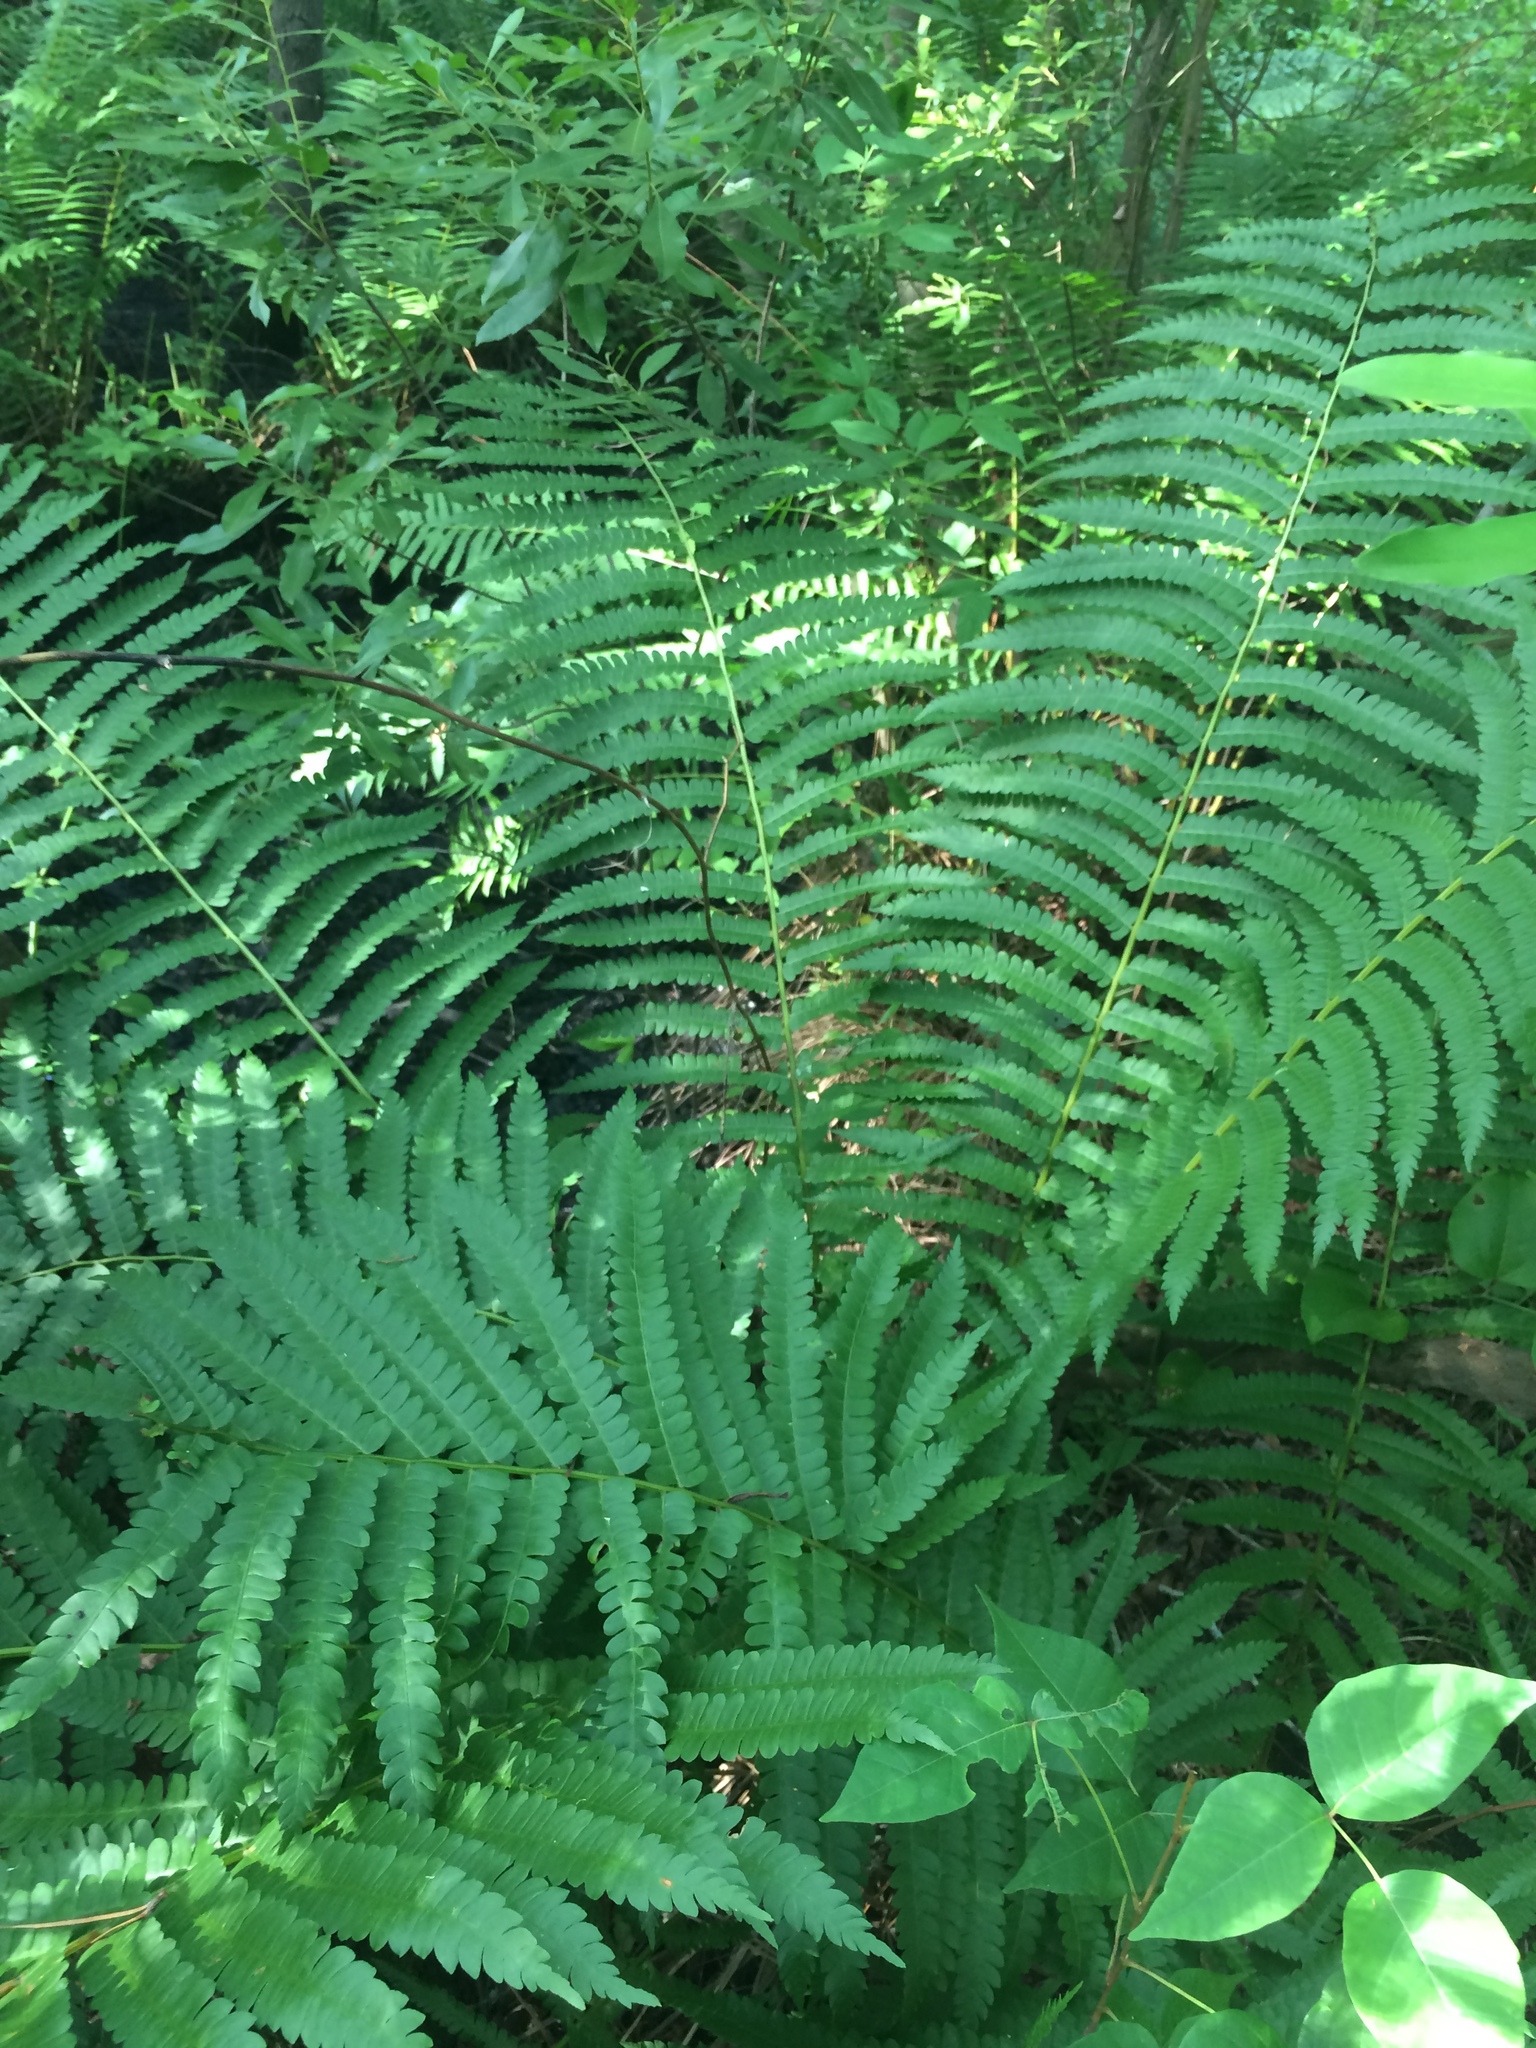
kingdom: Plantae
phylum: Tracheophyta
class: Polypodiopsida
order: Osmundales
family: Osmundaceae
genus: Osmundastrum
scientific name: Osmundastrum cinnamomeum
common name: Cinnamon fern
